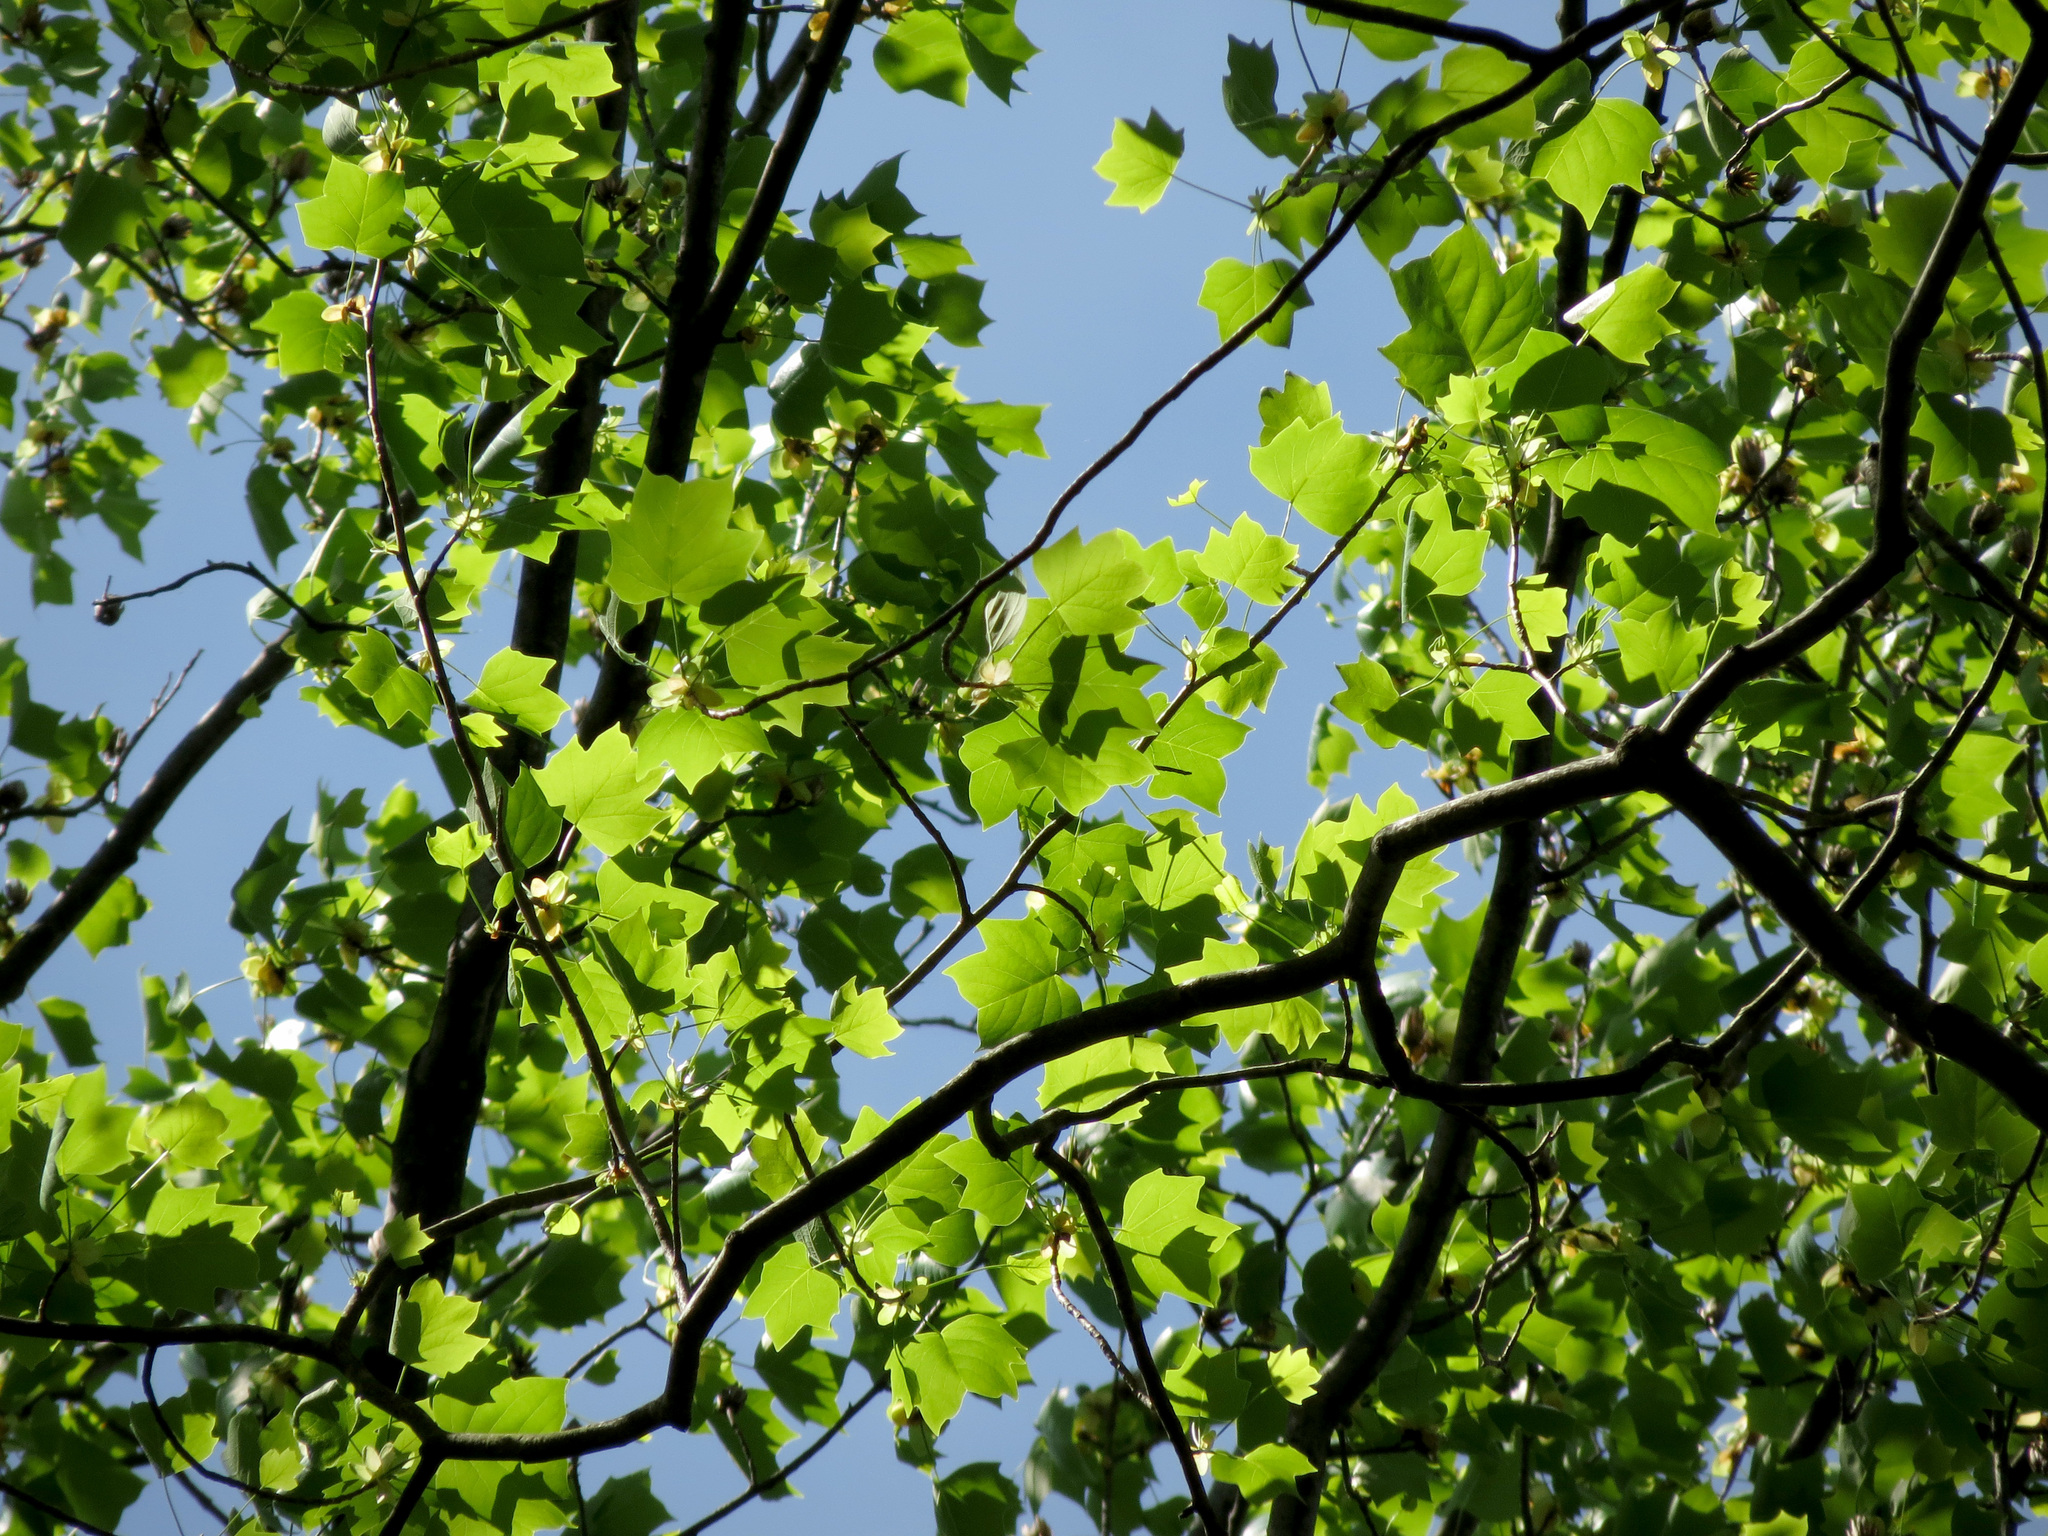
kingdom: Plantae
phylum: Tracheophyta
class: Magnoliopsida
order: Magnoliales
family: Magnoliaceae
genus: Liriodendron
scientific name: Liriodendron tulipifera
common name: Tulip tree
